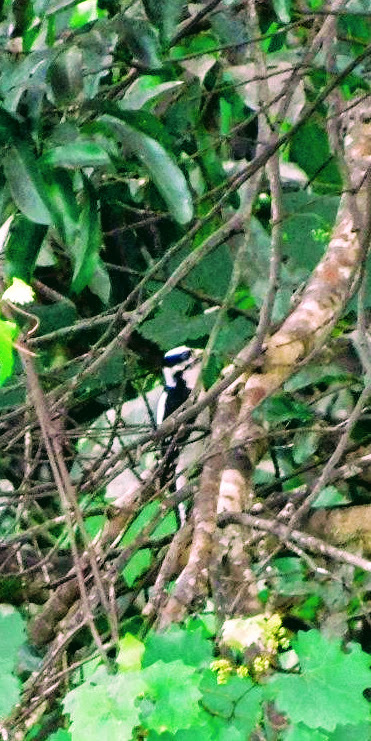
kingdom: Animalia
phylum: Chordata
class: Aves
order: Piciformes
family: Picidae
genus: Dryobates
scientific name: Dryobates pubescens
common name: Downy woodpecker
